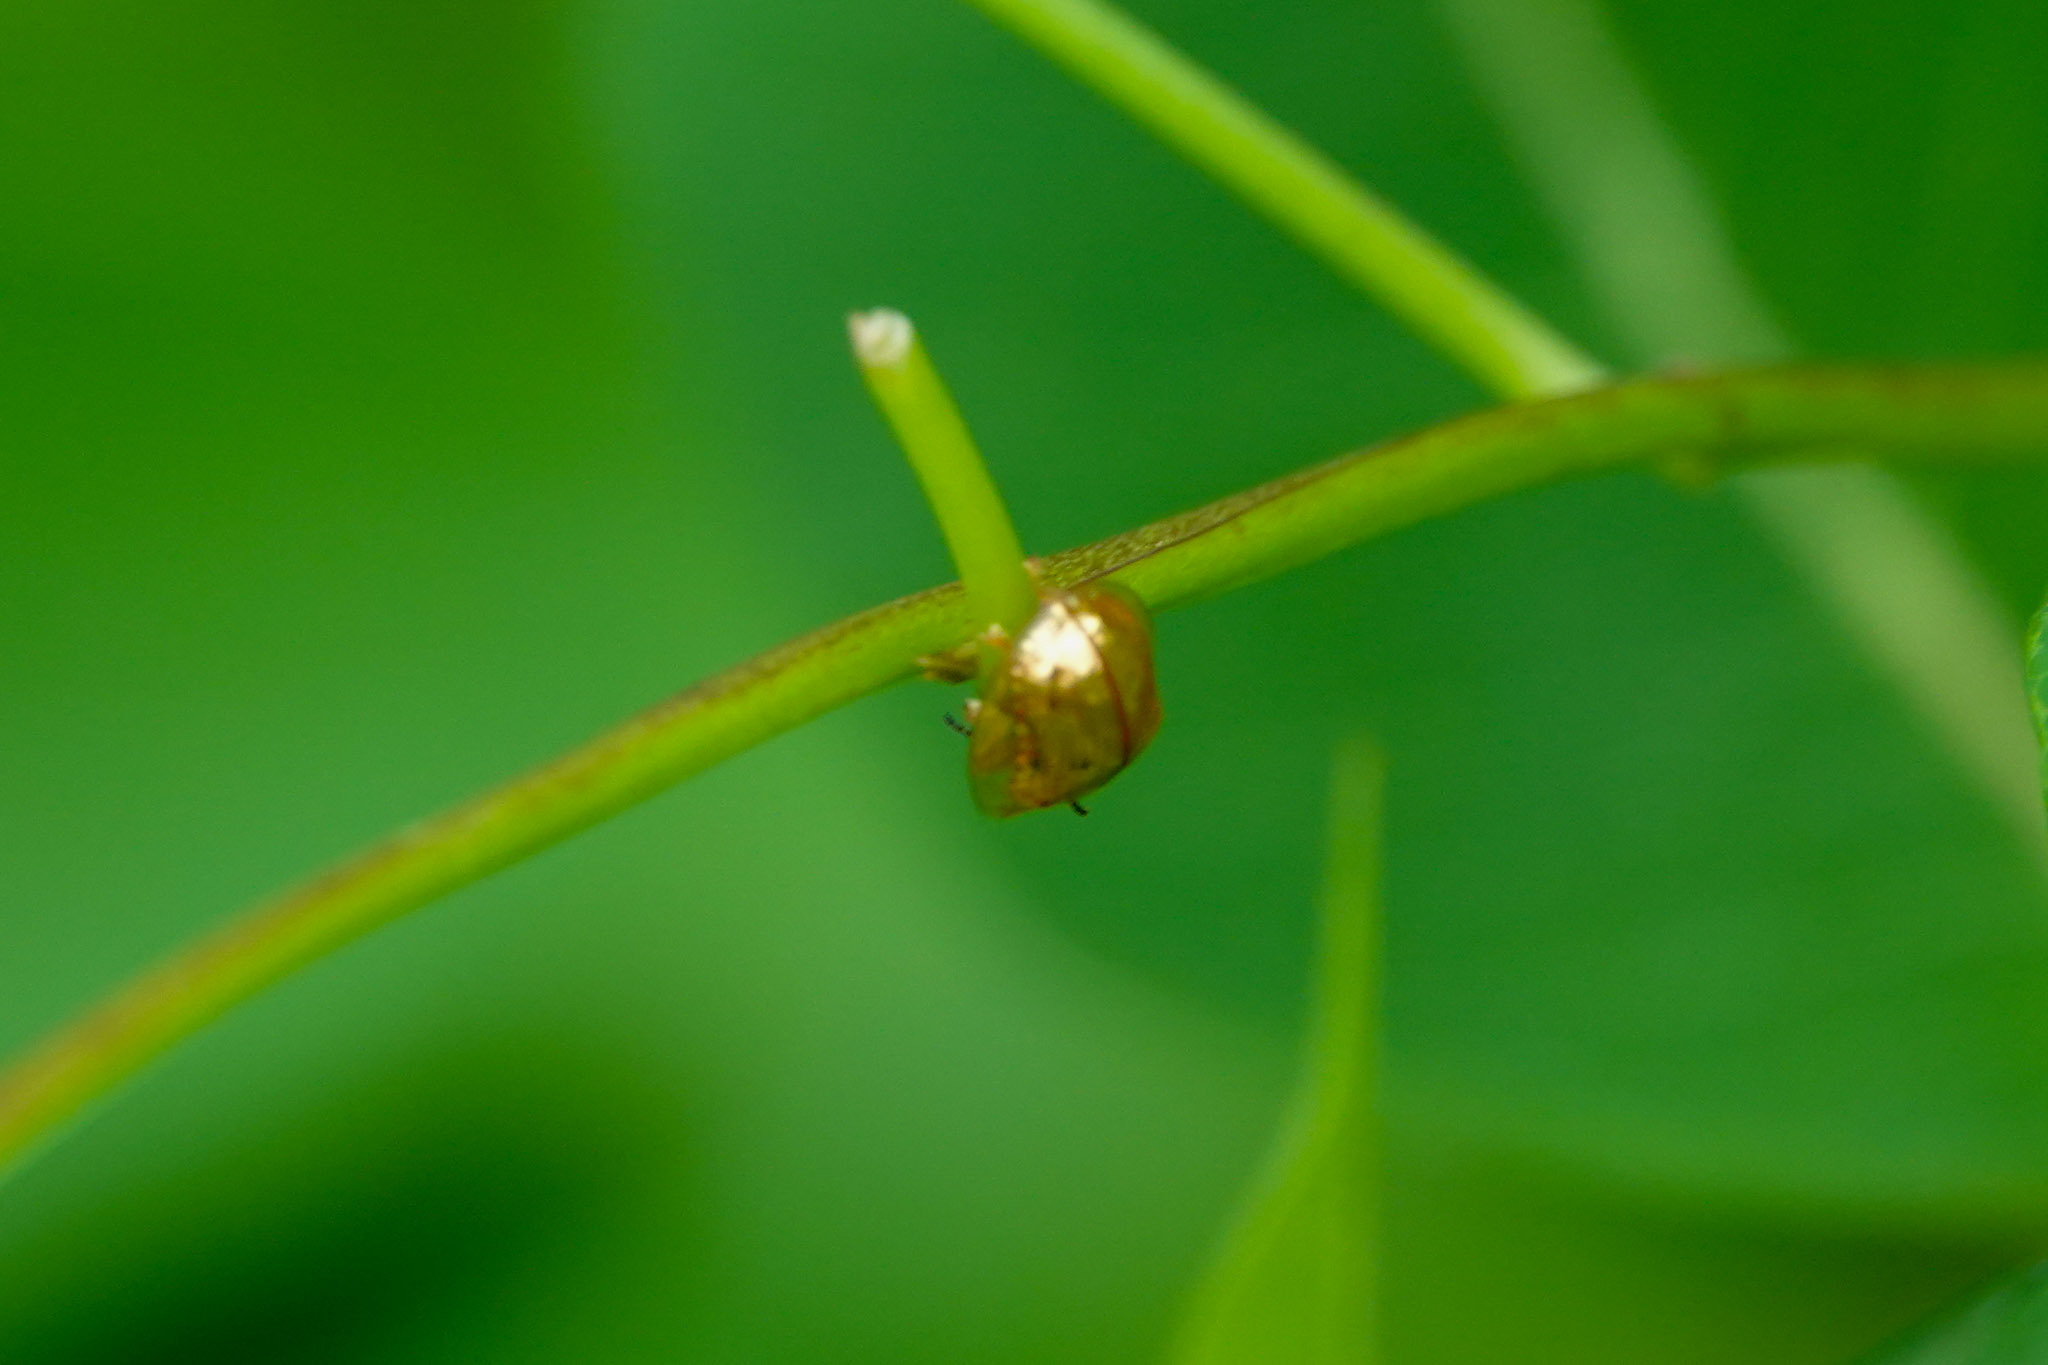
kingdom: Animalia
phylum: Arthropoda
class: Insecta
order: Coleoptera
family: Chrysomelidae
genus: Charidotella
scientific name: Charidotella sexpunctata
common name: Golden tortoise beetle
